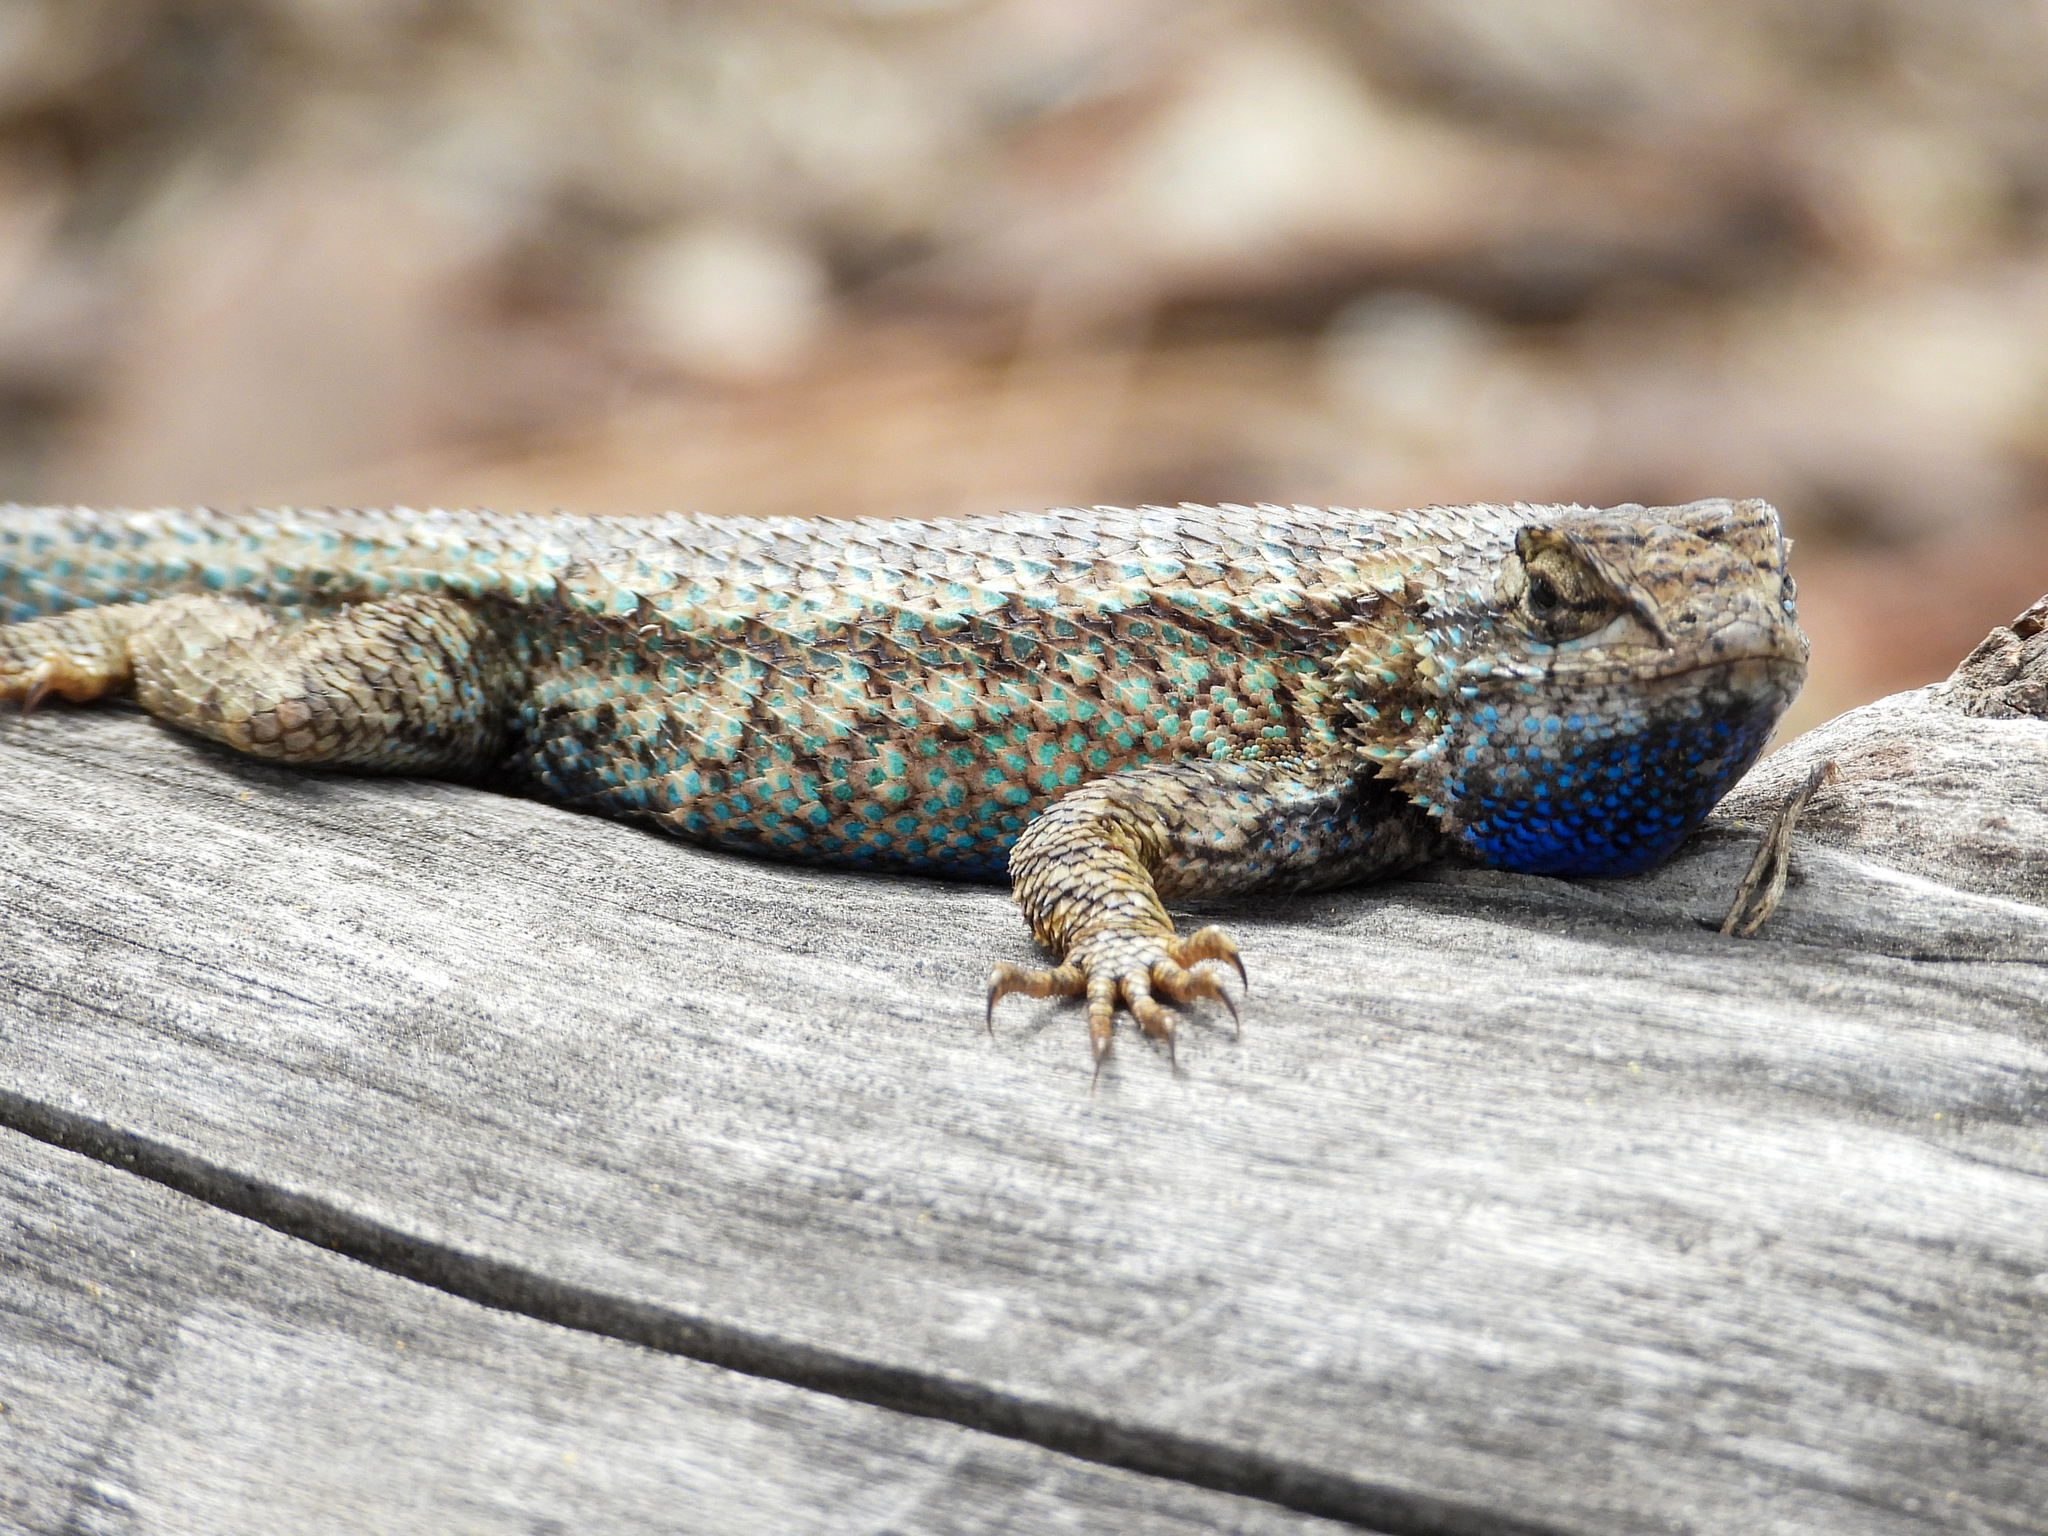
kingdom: Animalia
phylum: Chordata
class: Squamata
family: Phrynosomatidae
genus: Sceloporus
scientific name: Sceloporus occidentalis
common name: Western fence lizard
